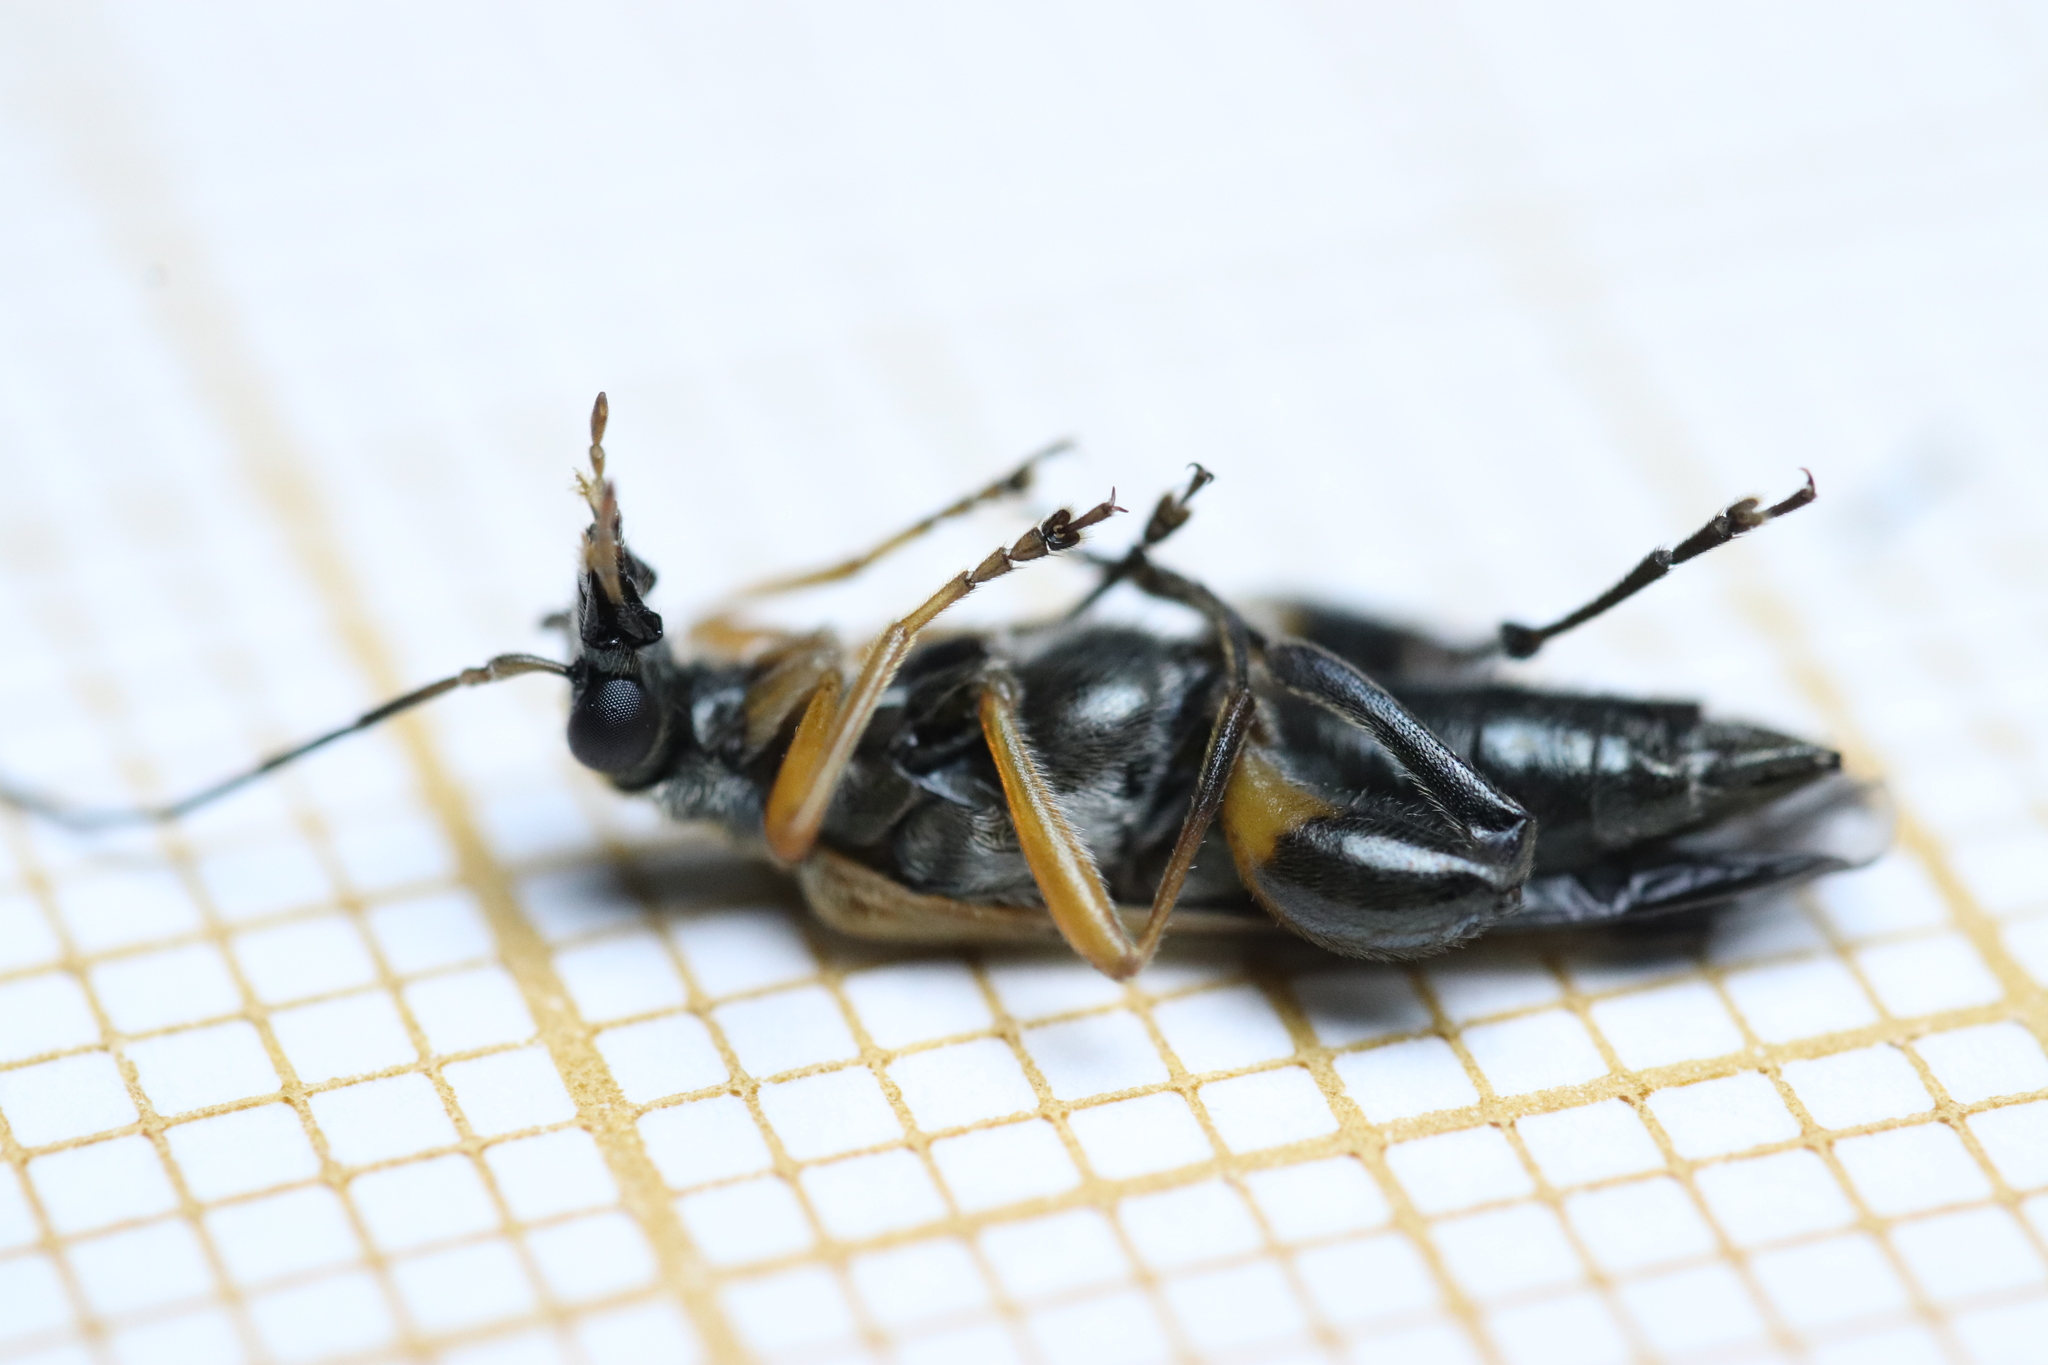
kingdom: Animalia
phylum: Arthropoda
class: Insecta
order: Coleoptera
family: Oedemeridae
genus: Oedemera
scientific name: Oedemera podagrariae
